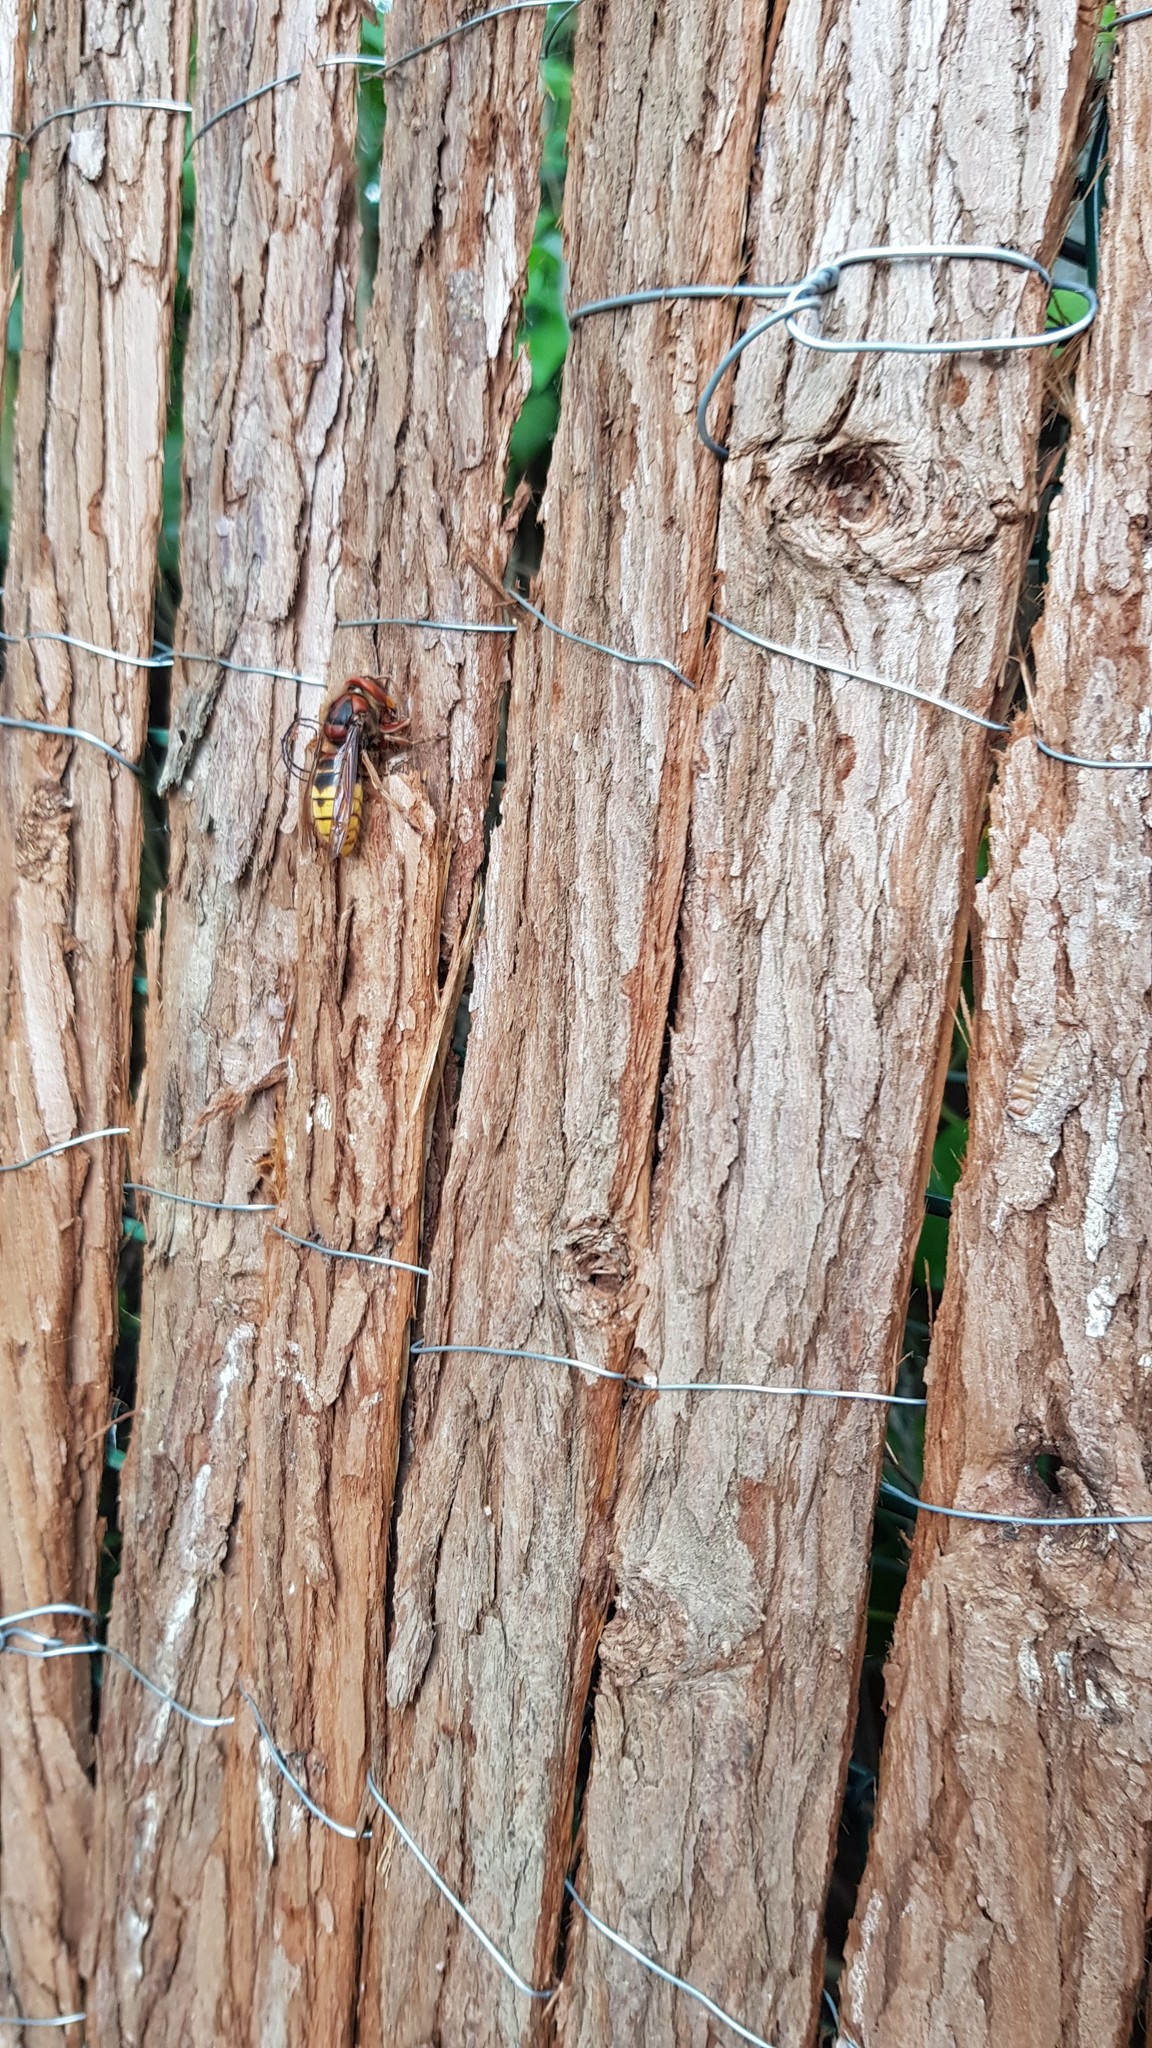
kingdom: Animalia
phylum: Arthropoda
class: Insecta
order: Hymenoptera
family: Vespidae
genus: Vespa
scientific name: Vespa crabro
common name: Hornet
